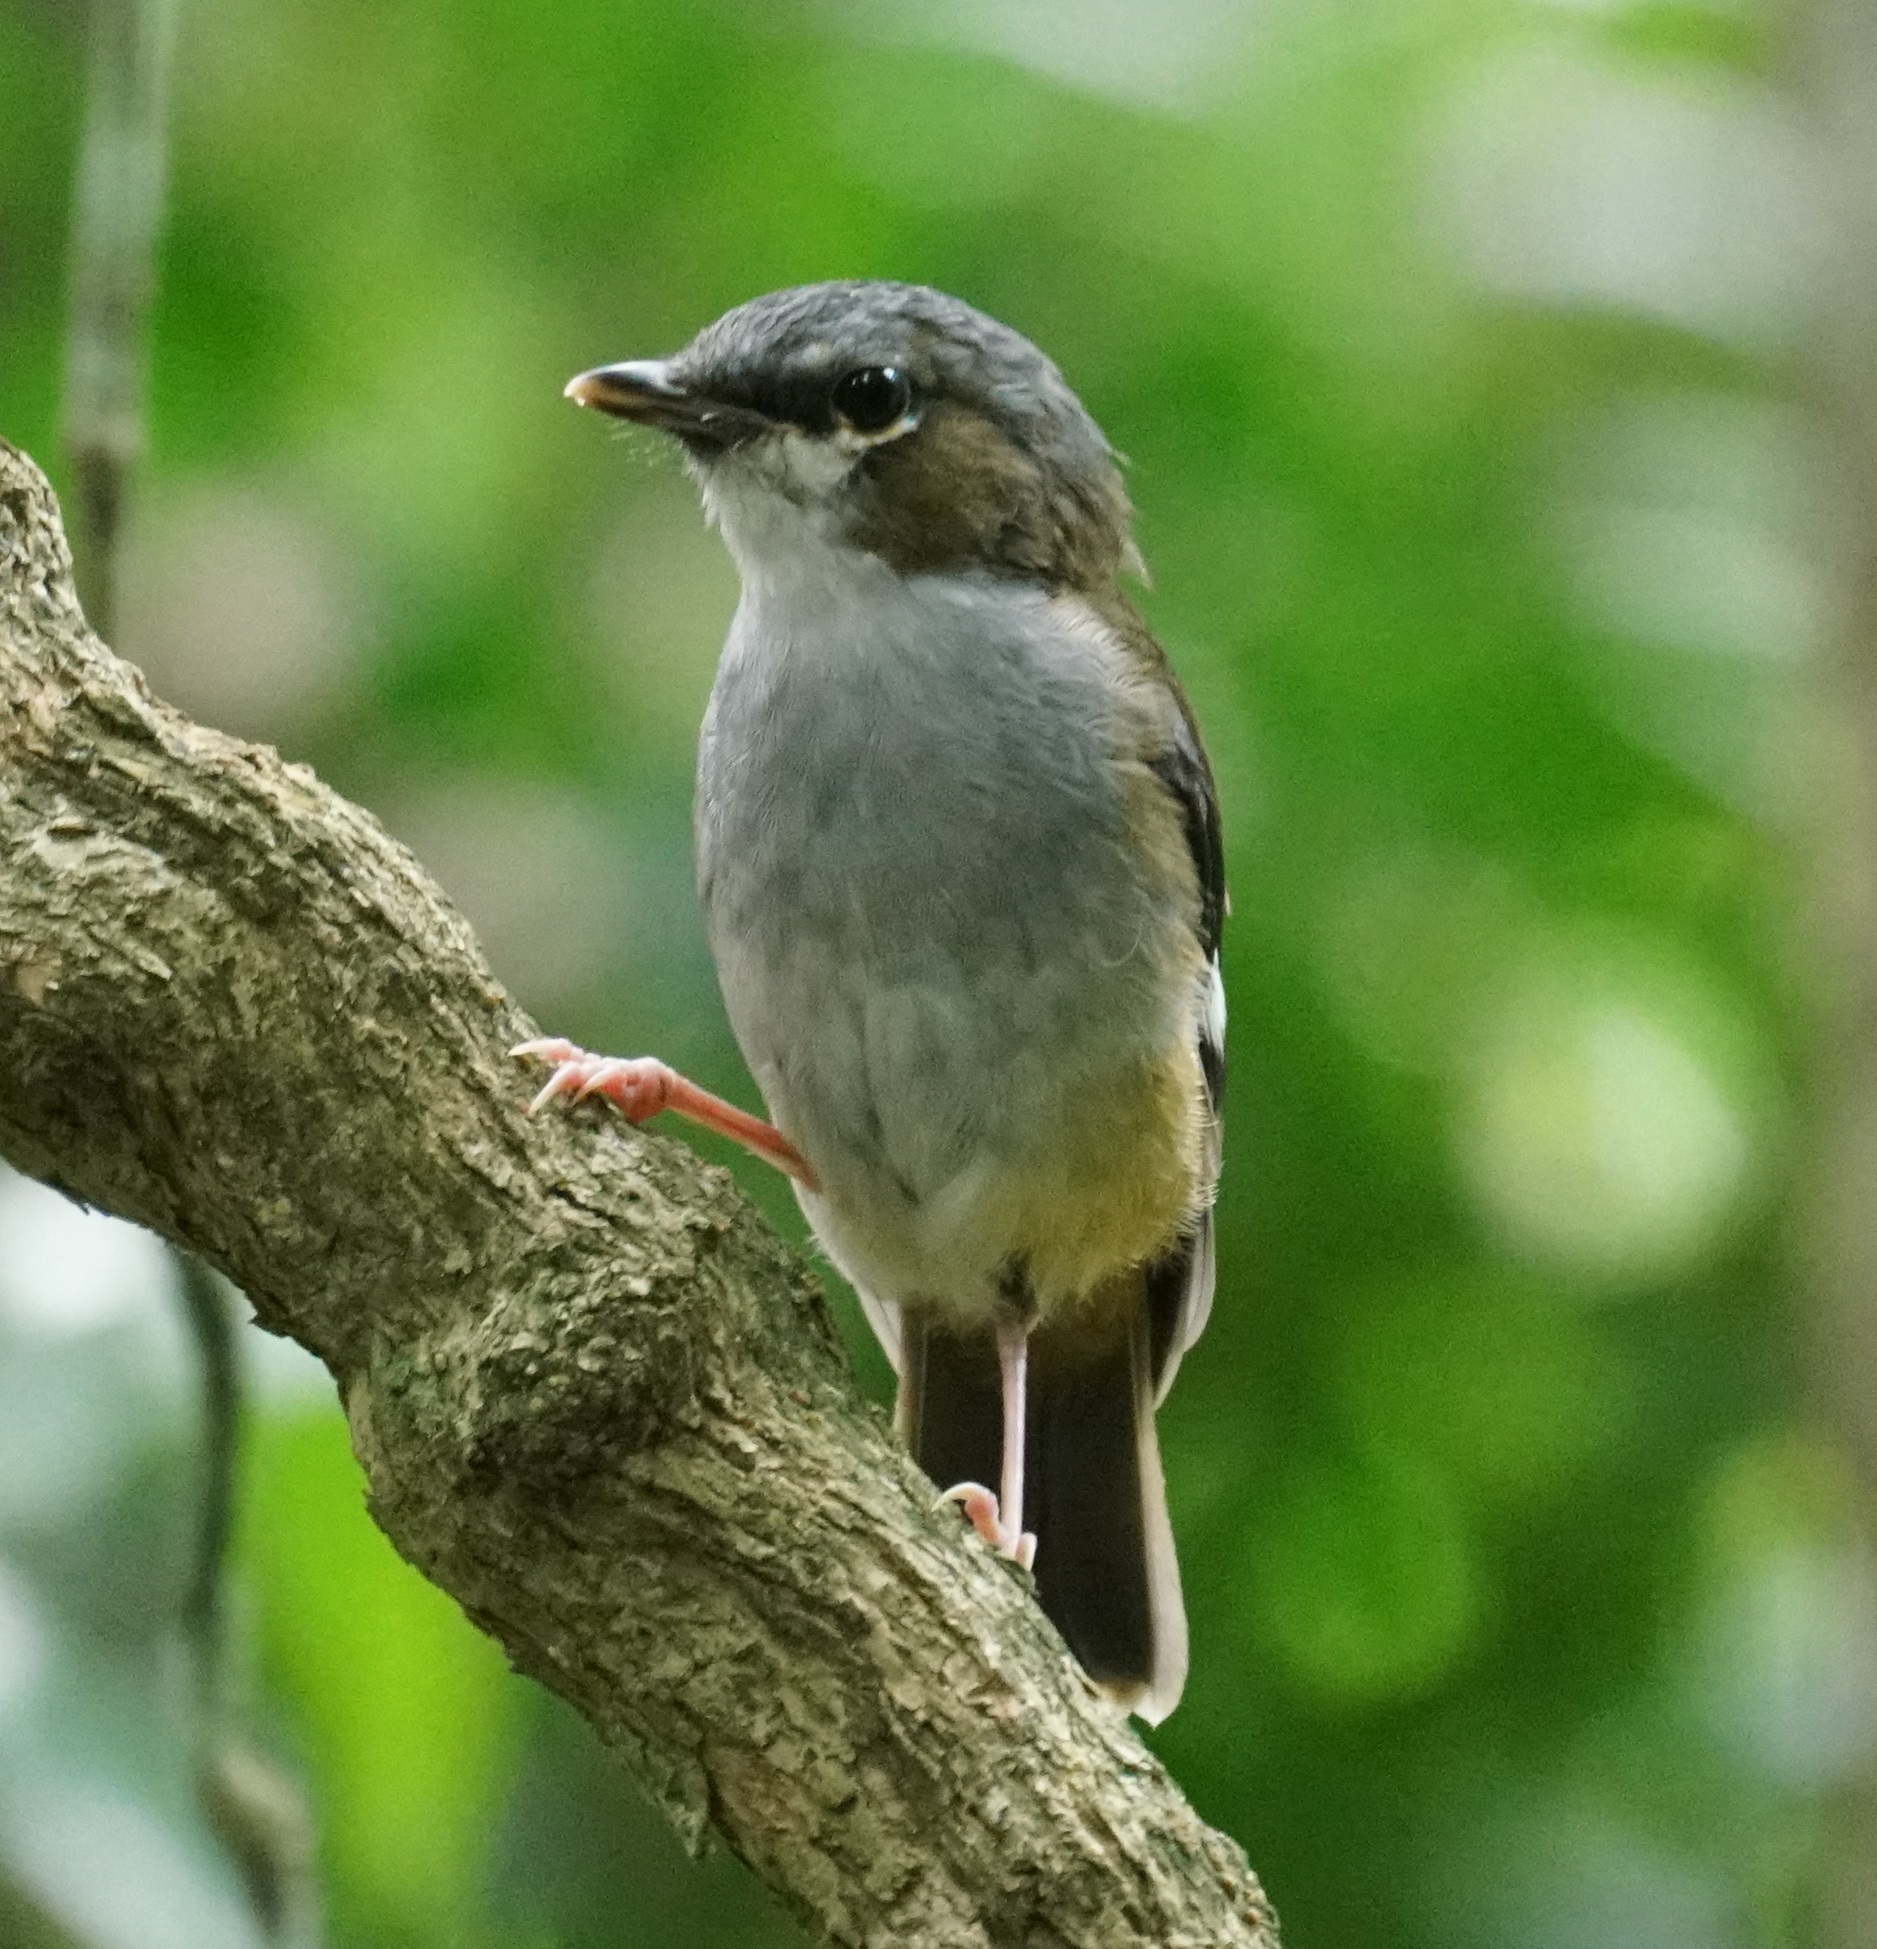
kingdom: Animalia
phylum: Chordata
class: Aves
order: Passeriformes
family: Petroicidae
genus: Heteromyias
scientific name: Heteromyias cinereifrons
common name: Grey-headed robin
